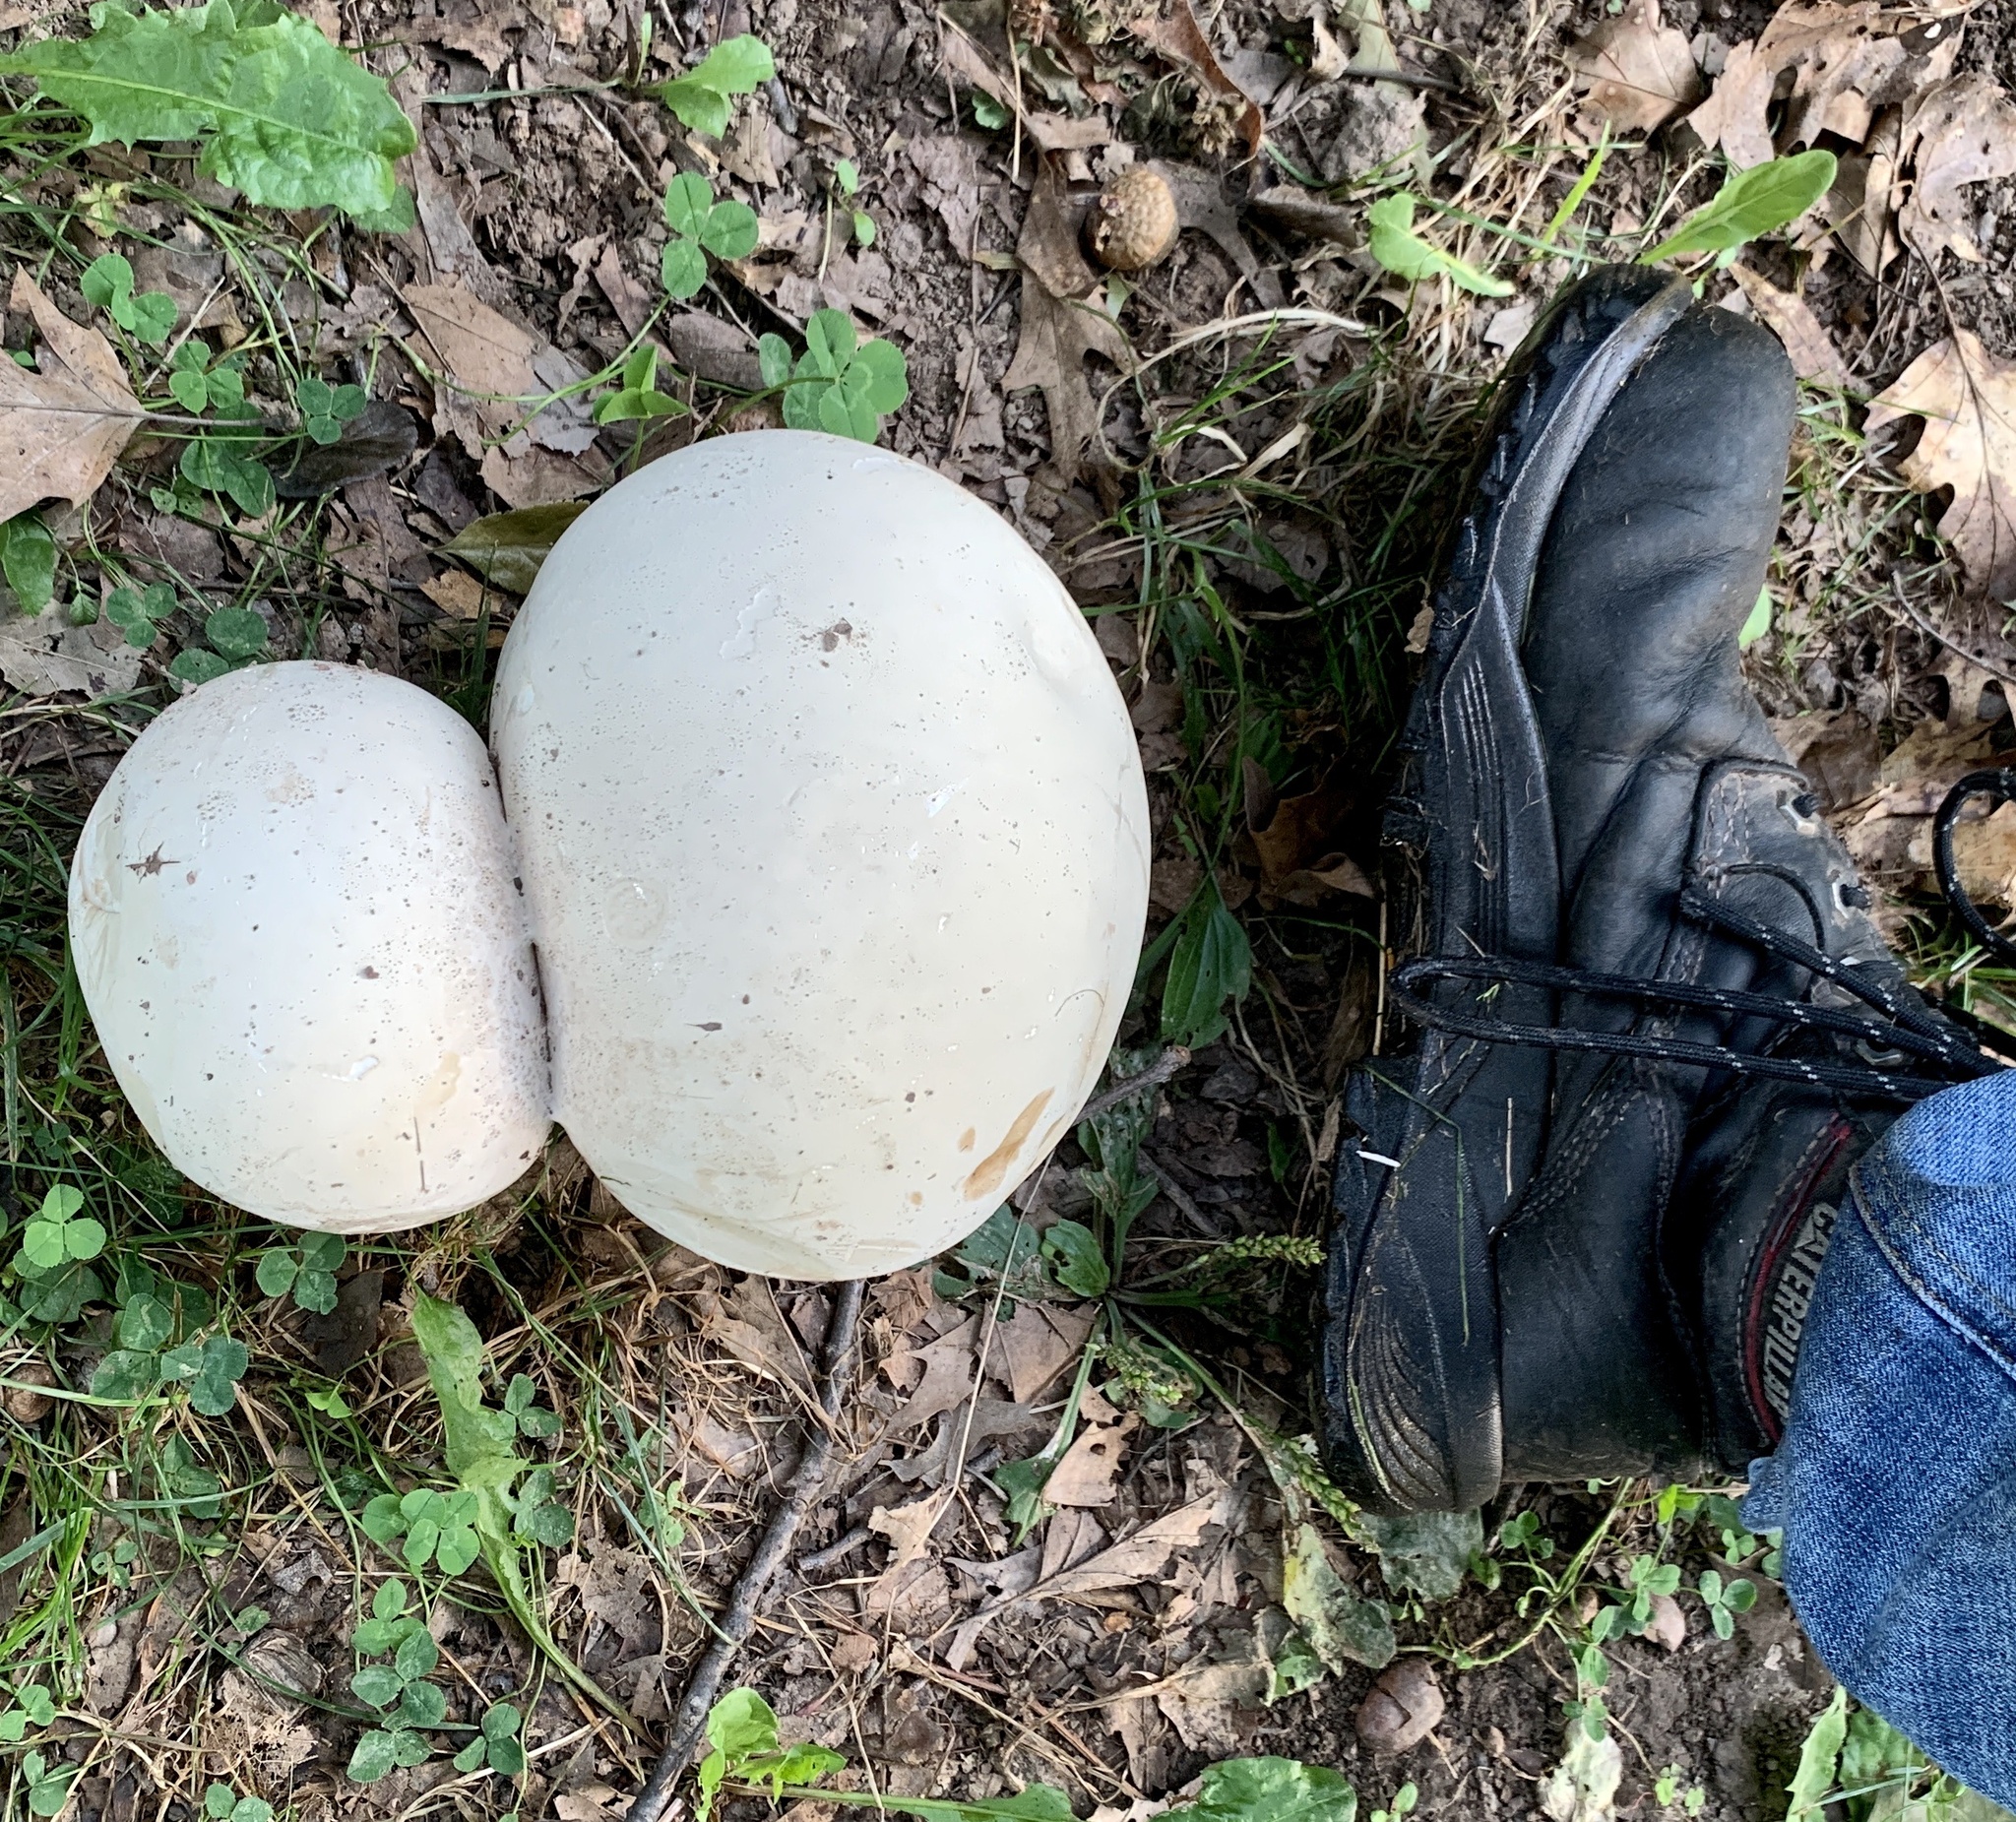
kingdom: Fungi
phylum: Basidiomycota
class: Agaricomycetes
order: Agaricales
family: Lycoperdaceae
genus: Calvatia
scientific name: Calvatia gigantea
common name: Giant puffball
